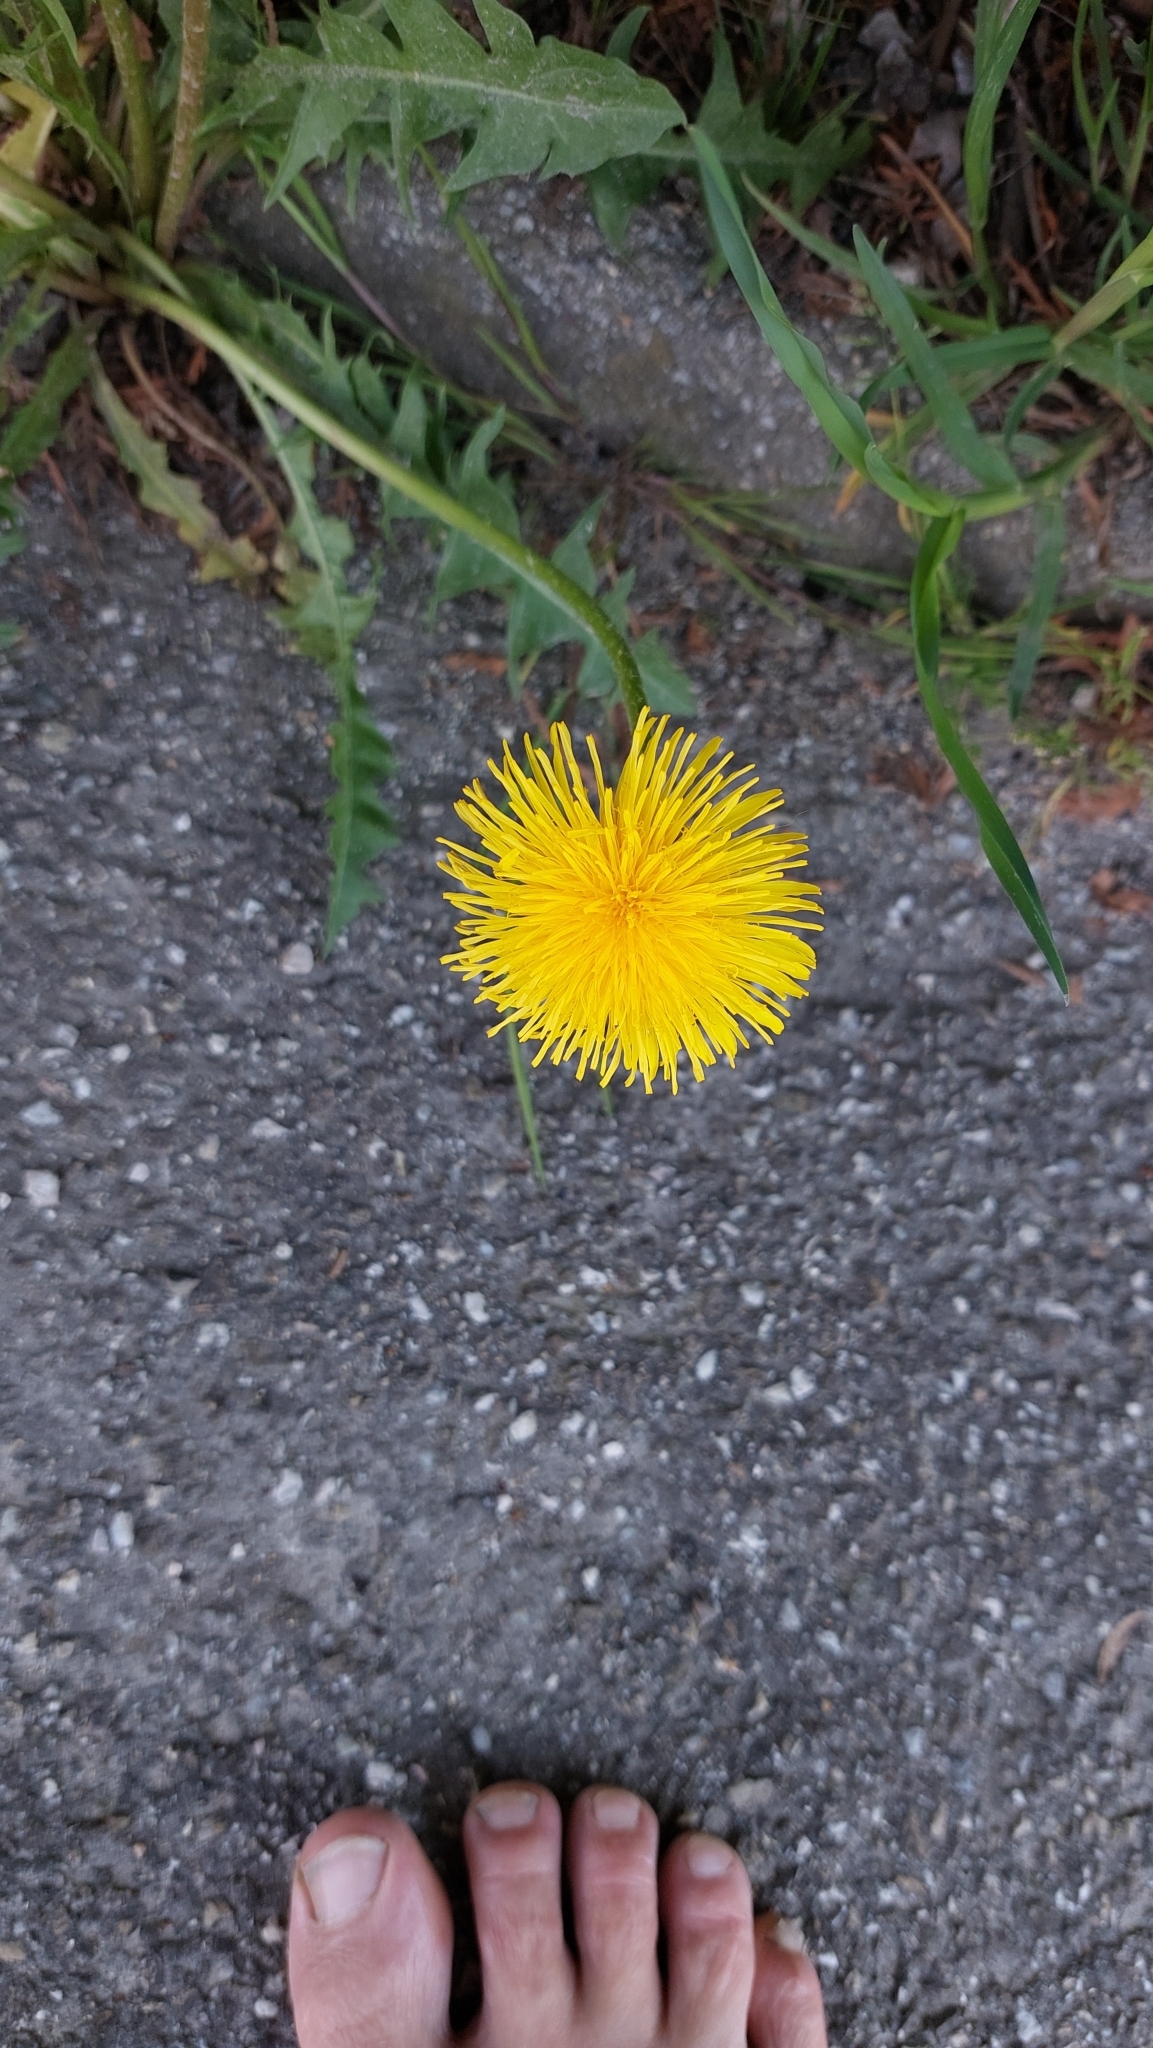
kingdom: Plantae
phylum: Tracheophyta
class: Magnoliopsida
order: Asterales
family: Asteraceae
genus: Taraxacum
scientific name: Taraxacum
